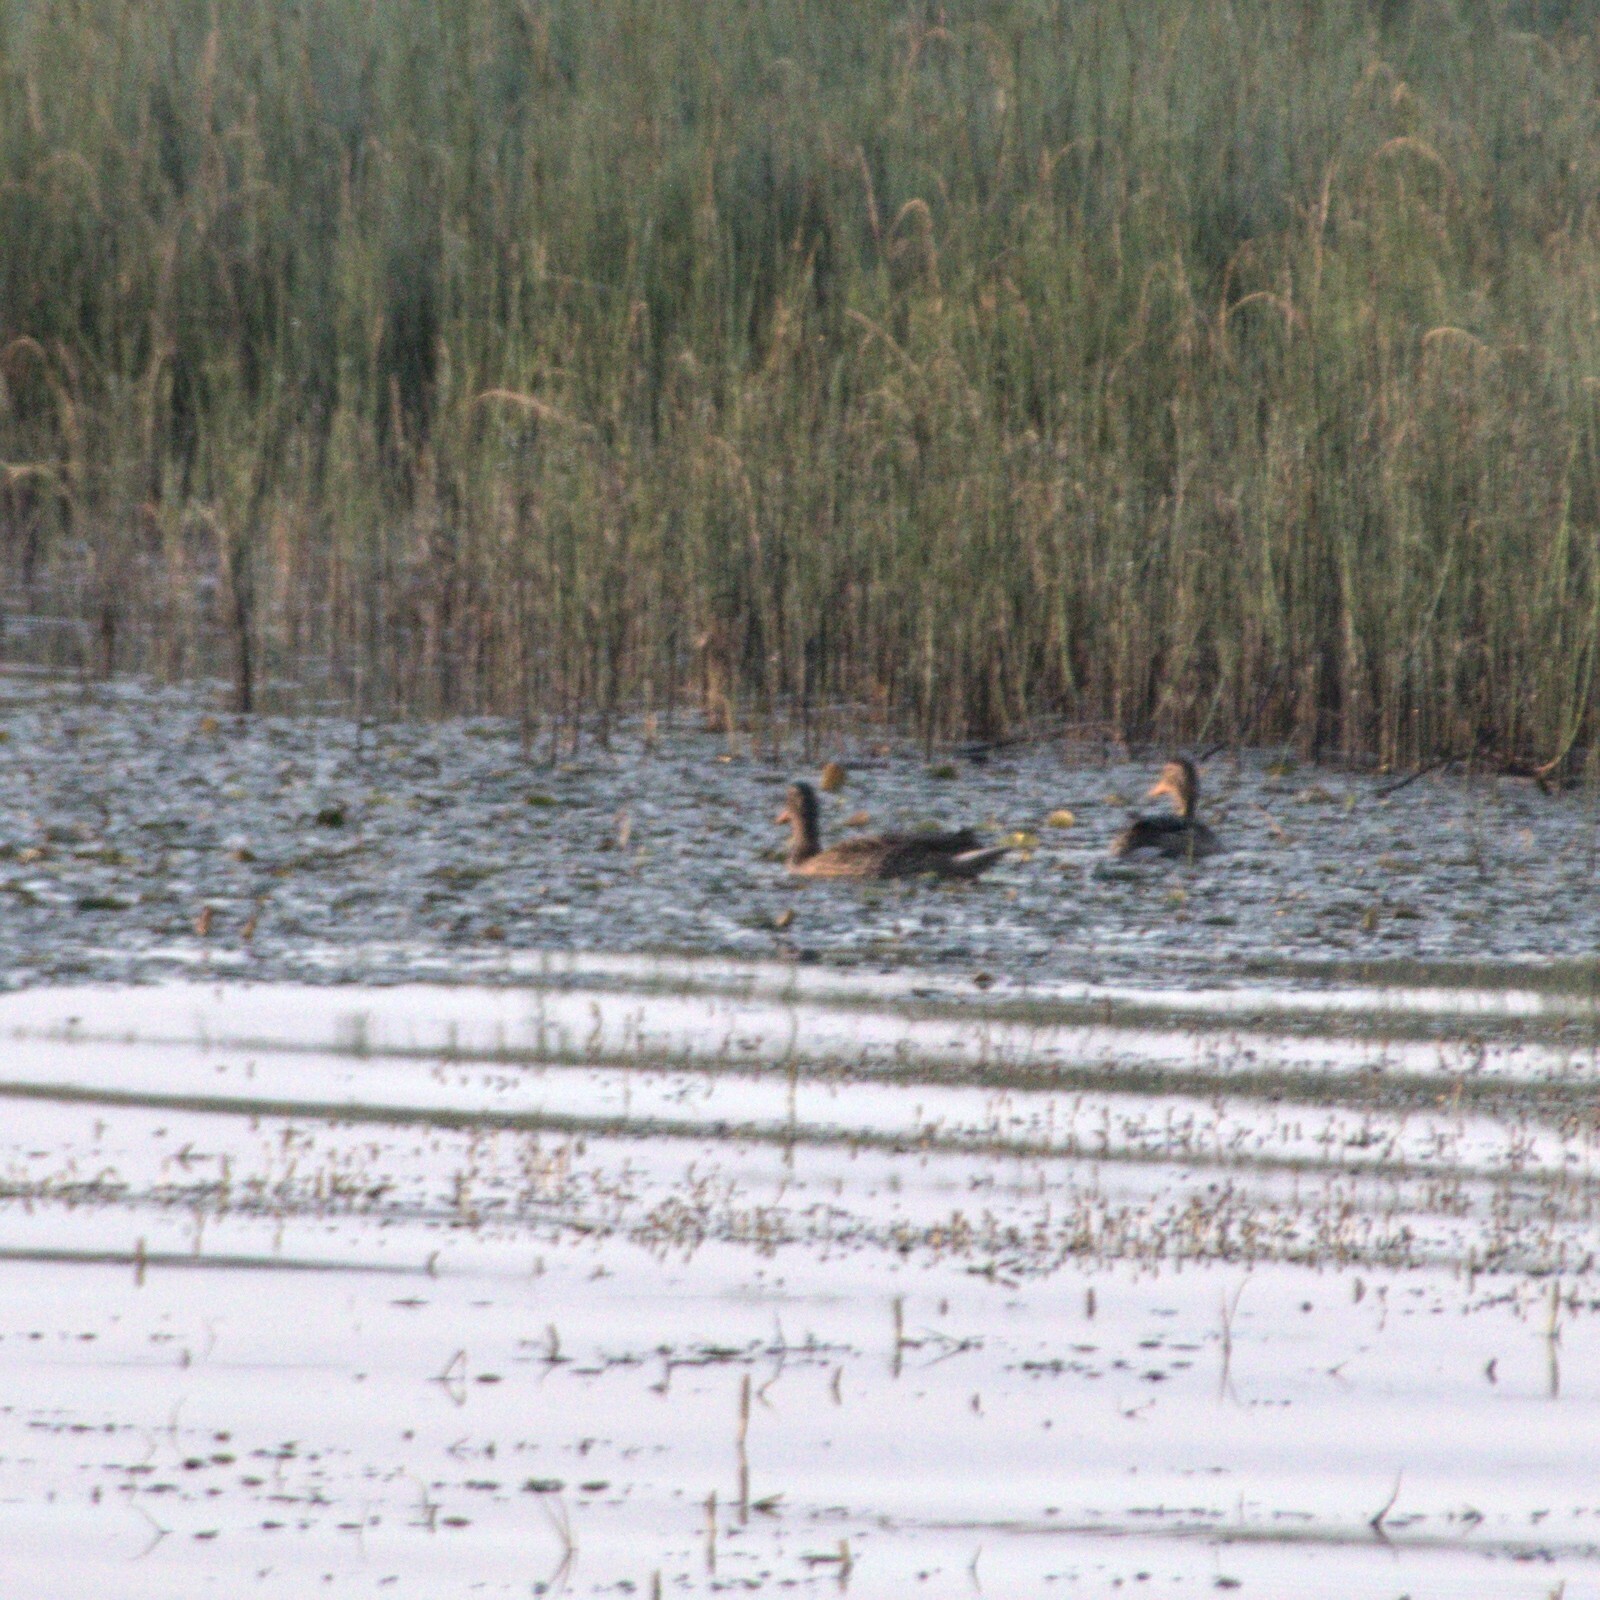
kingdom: Animalia
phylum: Chordata
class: Aves
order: Anseriformes
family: Anatidae
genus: Anas
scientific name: Anas platyrhynchos
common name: Mallard
